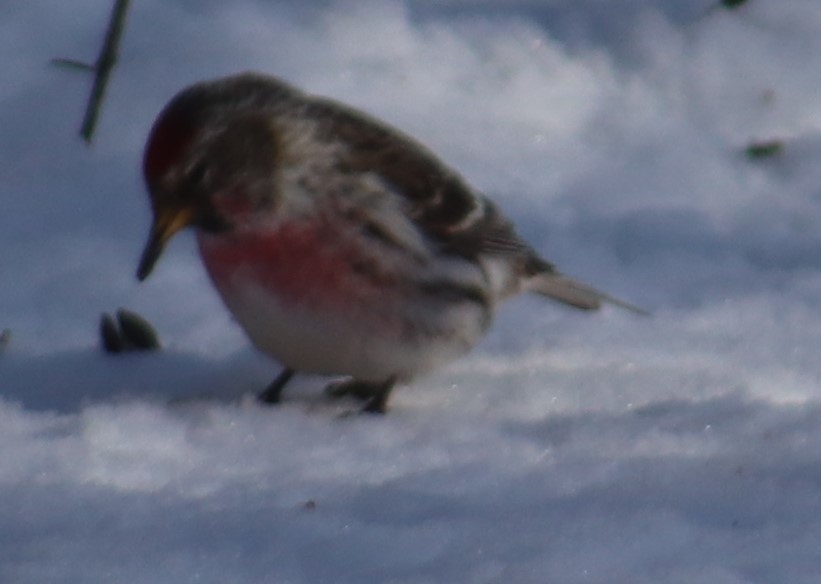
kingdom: Animalia
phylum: Chordata
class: Aves
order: Passeriformes
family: Fringillidae
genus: Acanthis
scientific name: Acanthis flammea
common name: Common redpoll
